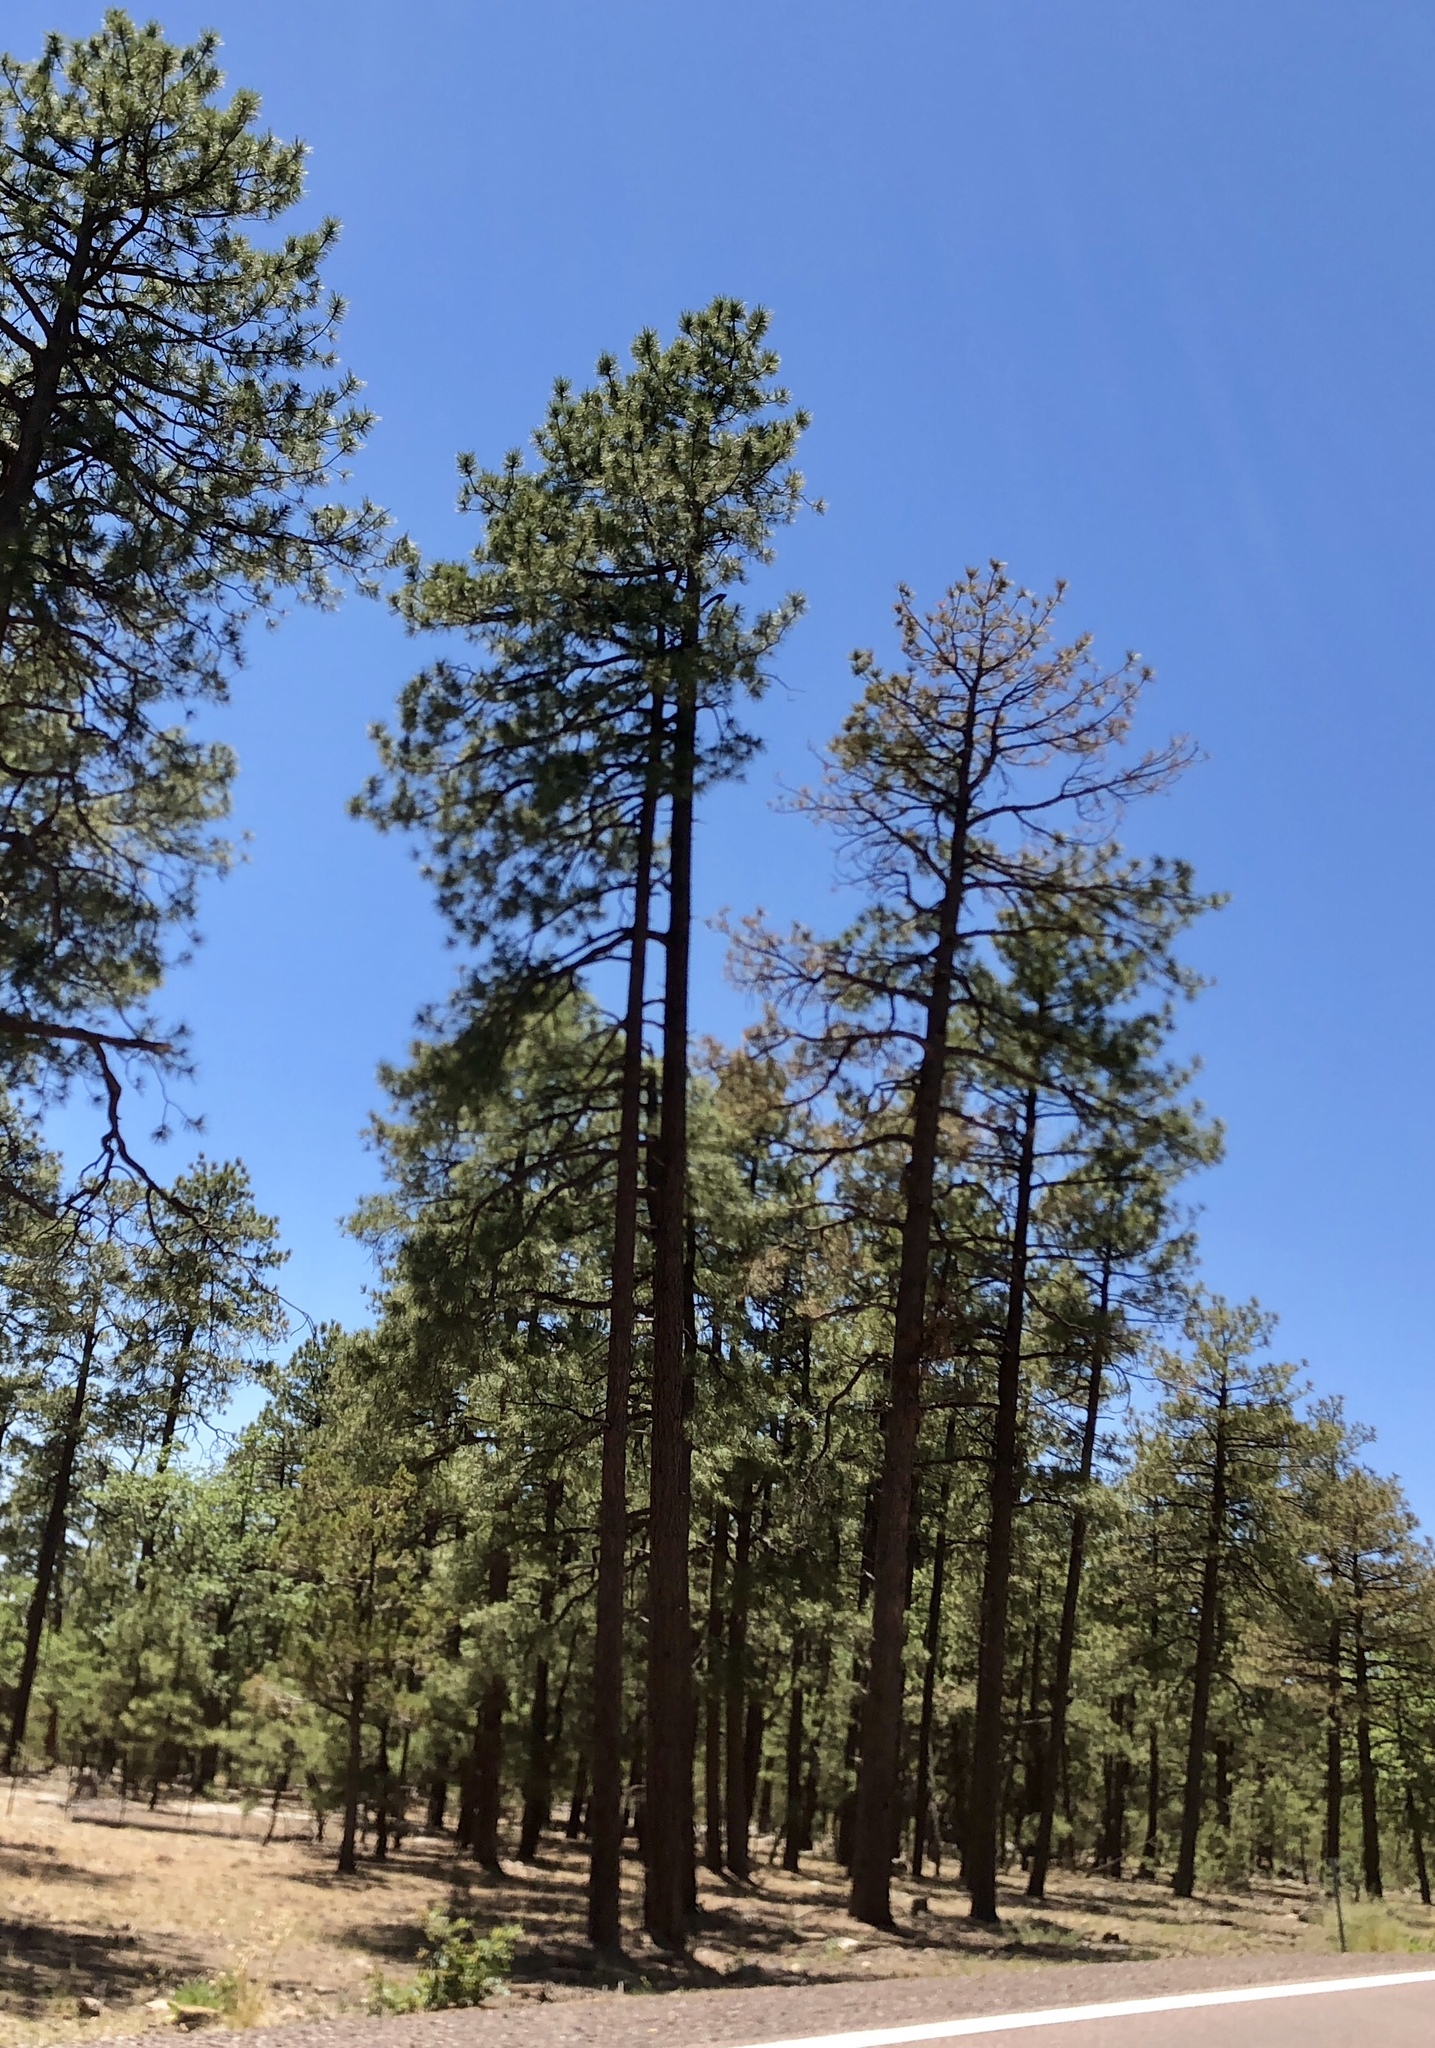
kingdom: Plantae
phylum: Tracheophyta
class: Pinopsida
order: Pinales
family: Pinaceae
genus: Pinus
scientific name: Pinus ponderosa
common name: Western yellow-pine
